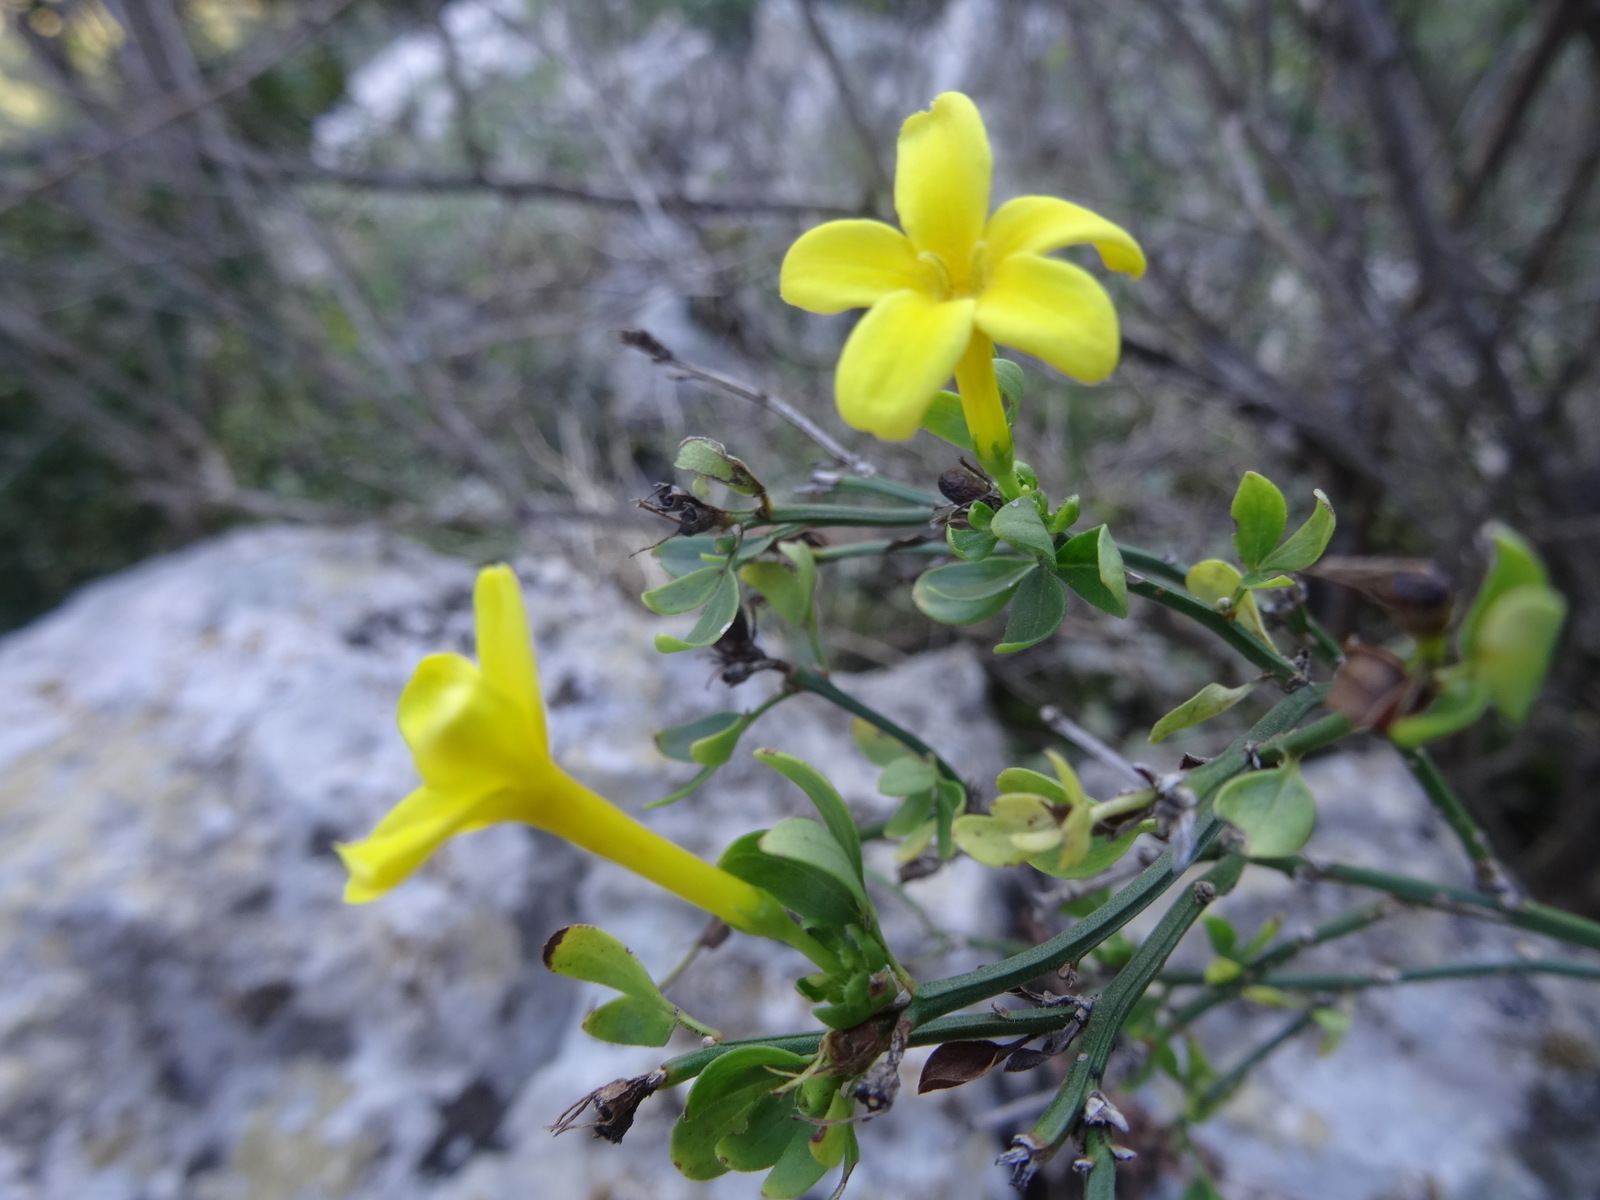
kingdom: Plantae
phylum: Tracheophyta
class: Magnoliopsida
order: Lamiales
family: Oleaceae
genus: Chrysojasminum
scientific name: Chrysojasminum fruticans
